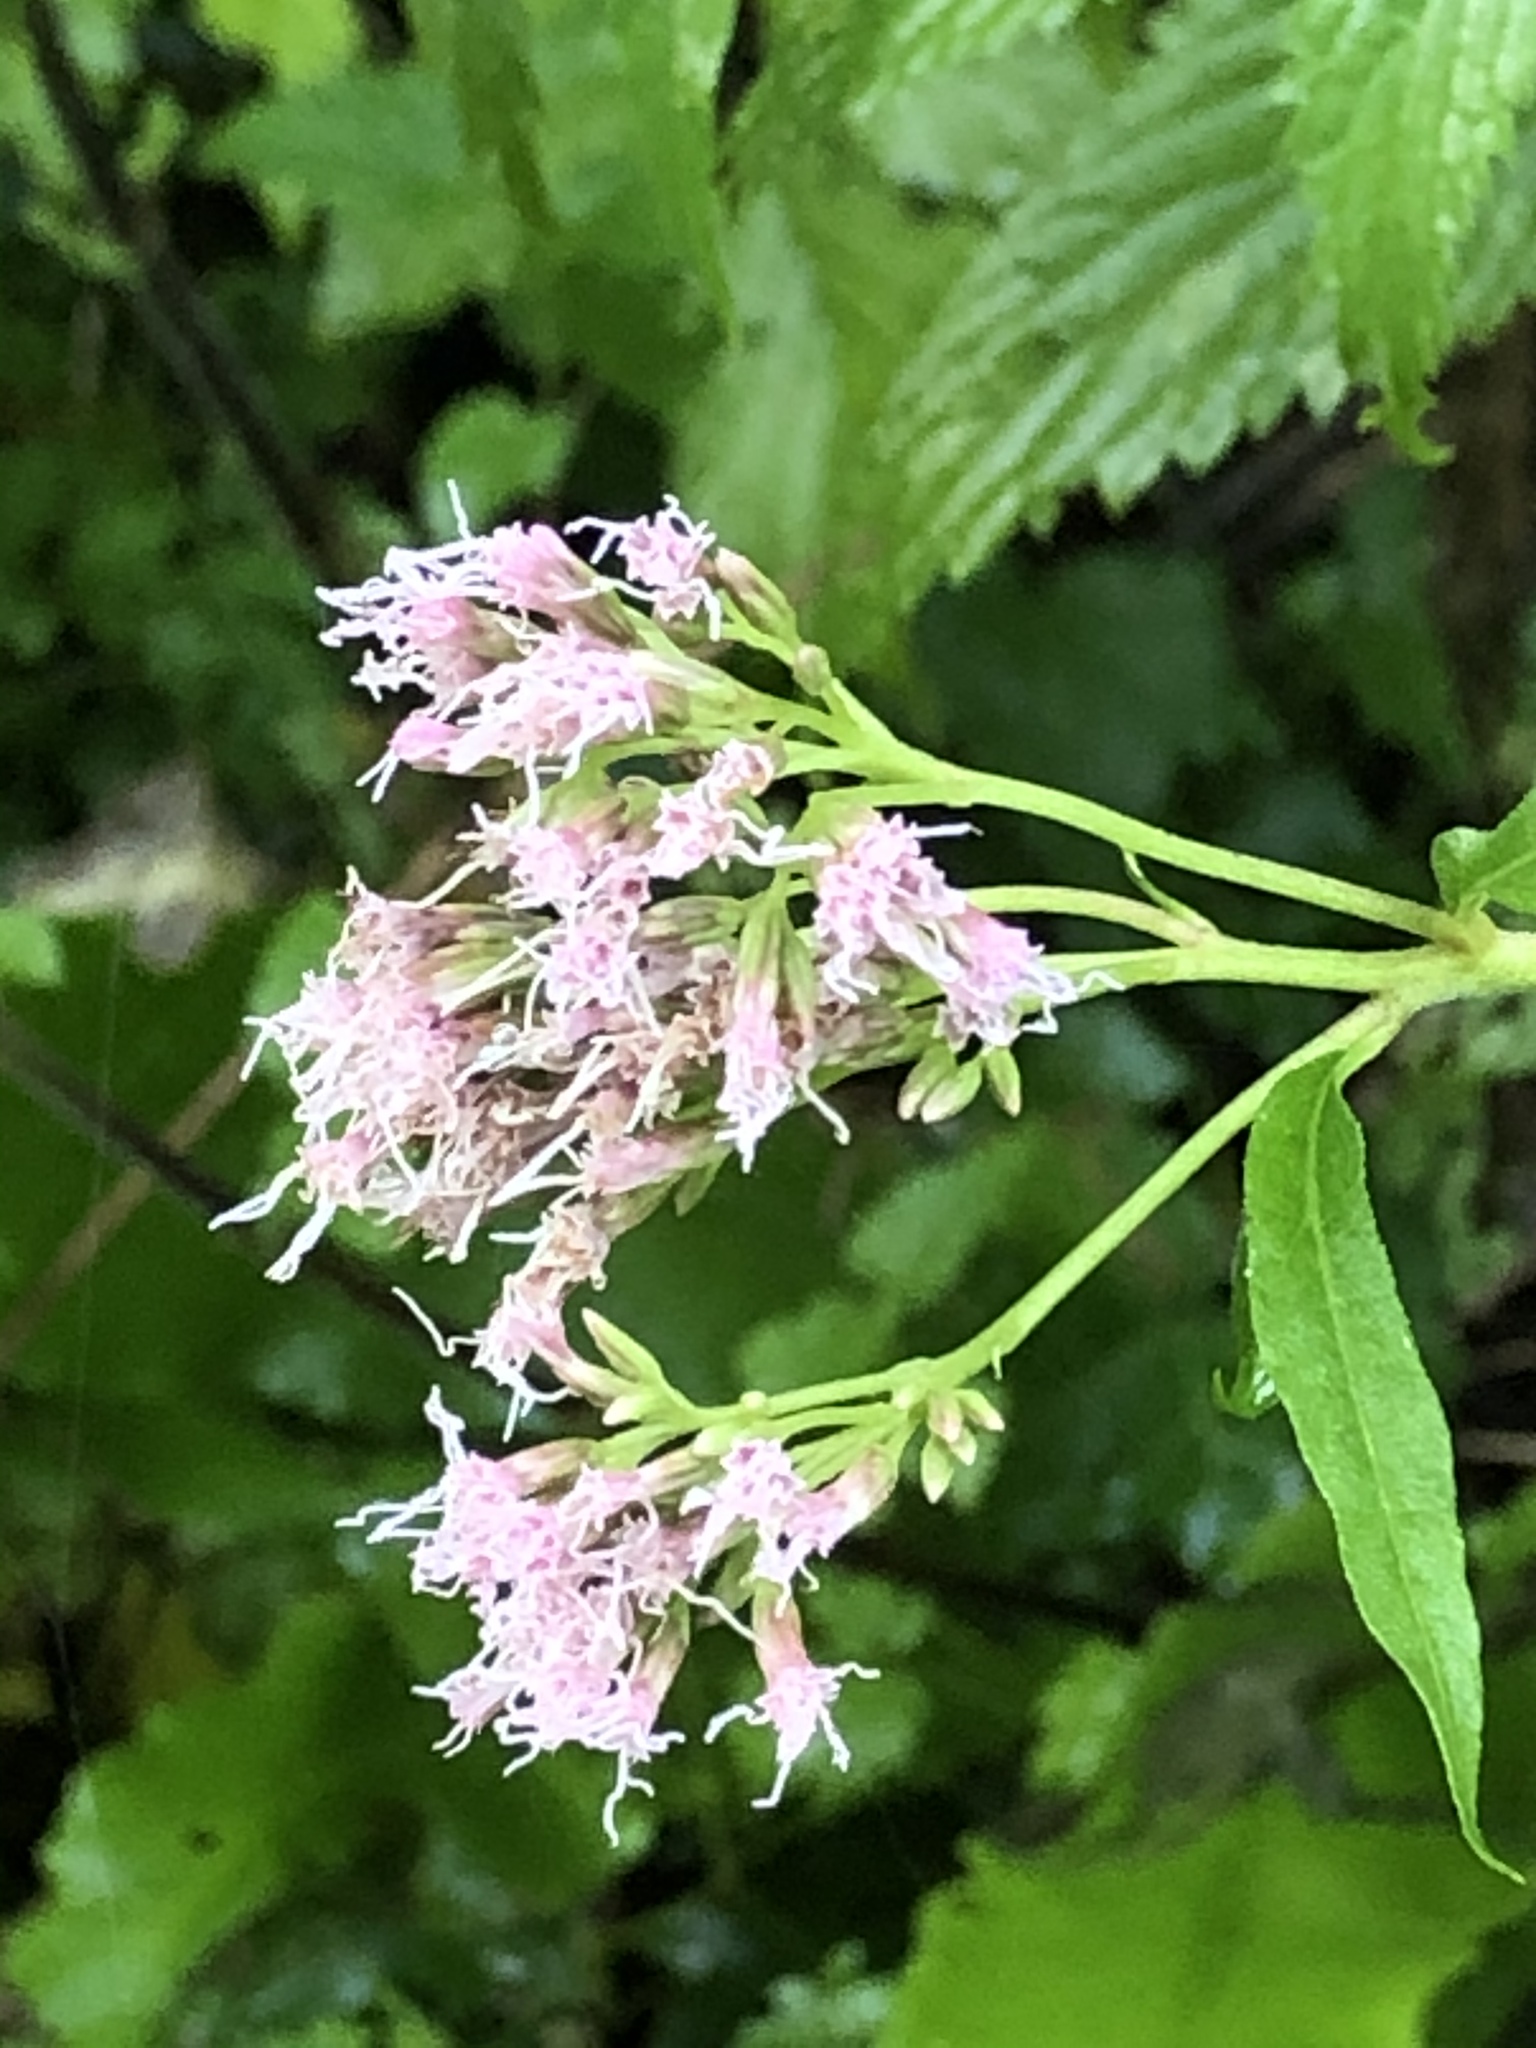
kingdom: Plantae
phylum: Tracheophyta
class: Magnoliopsida
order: Asterales
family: Asteraceae
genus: Eupatorium
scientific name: Eupatorium cannabinum
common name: Hemp-agrimony
